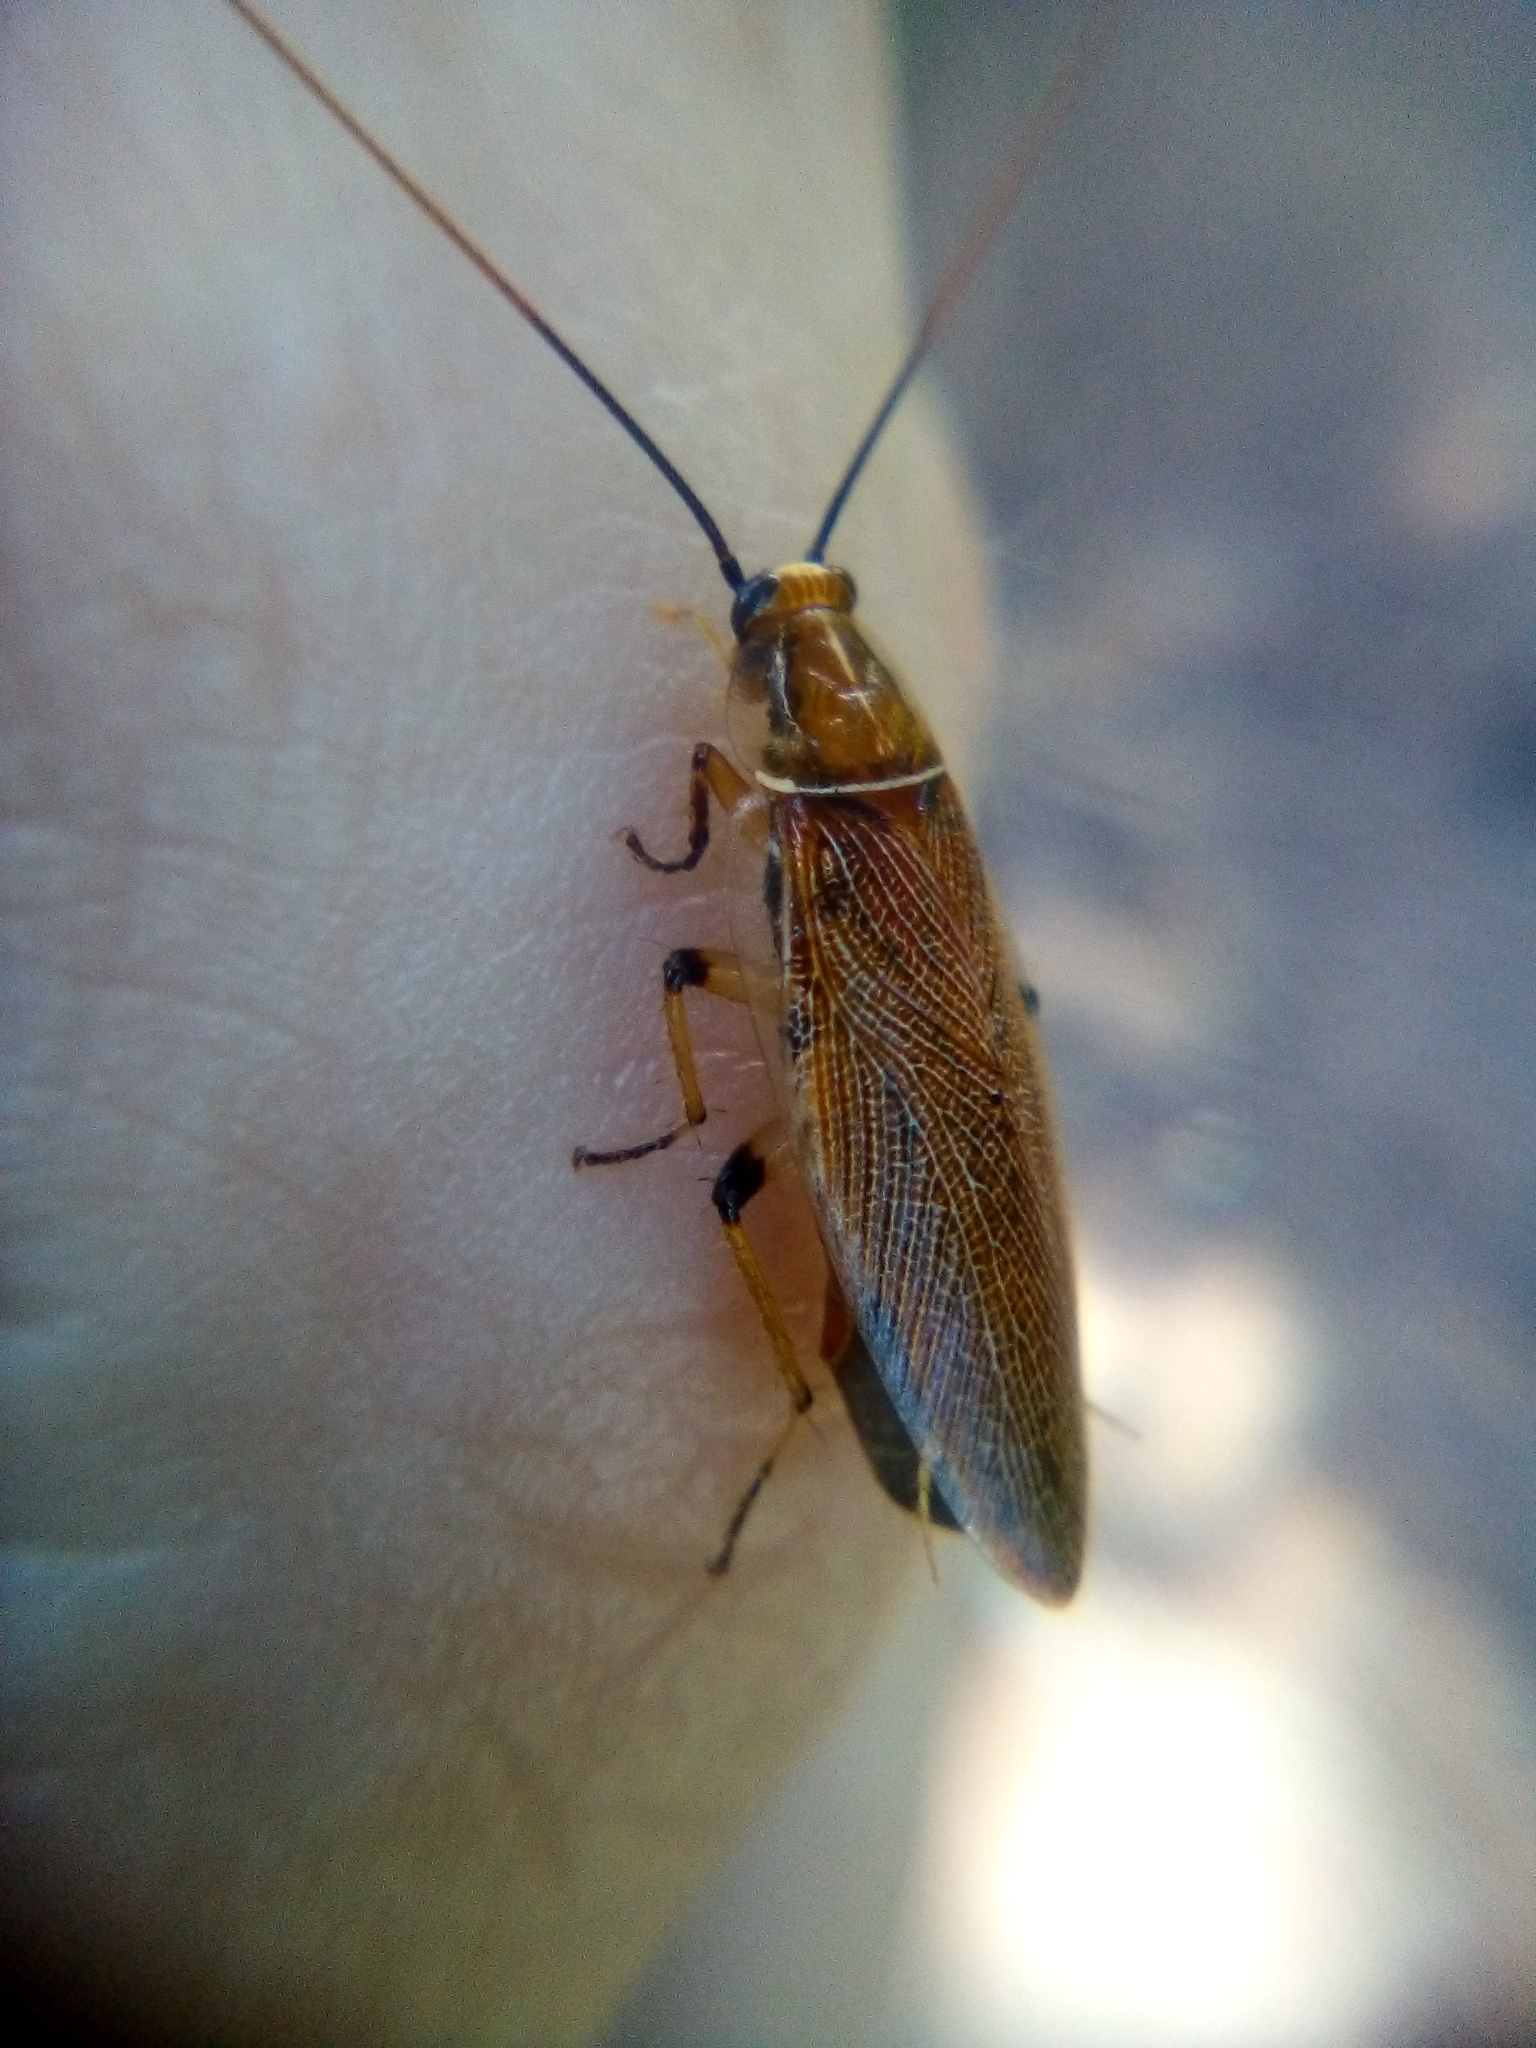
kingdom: Animalia
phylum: Arthropoda
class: Insecta
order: Blattodea
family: Ectobiidae
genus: Balta
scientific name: Balta bicolor
